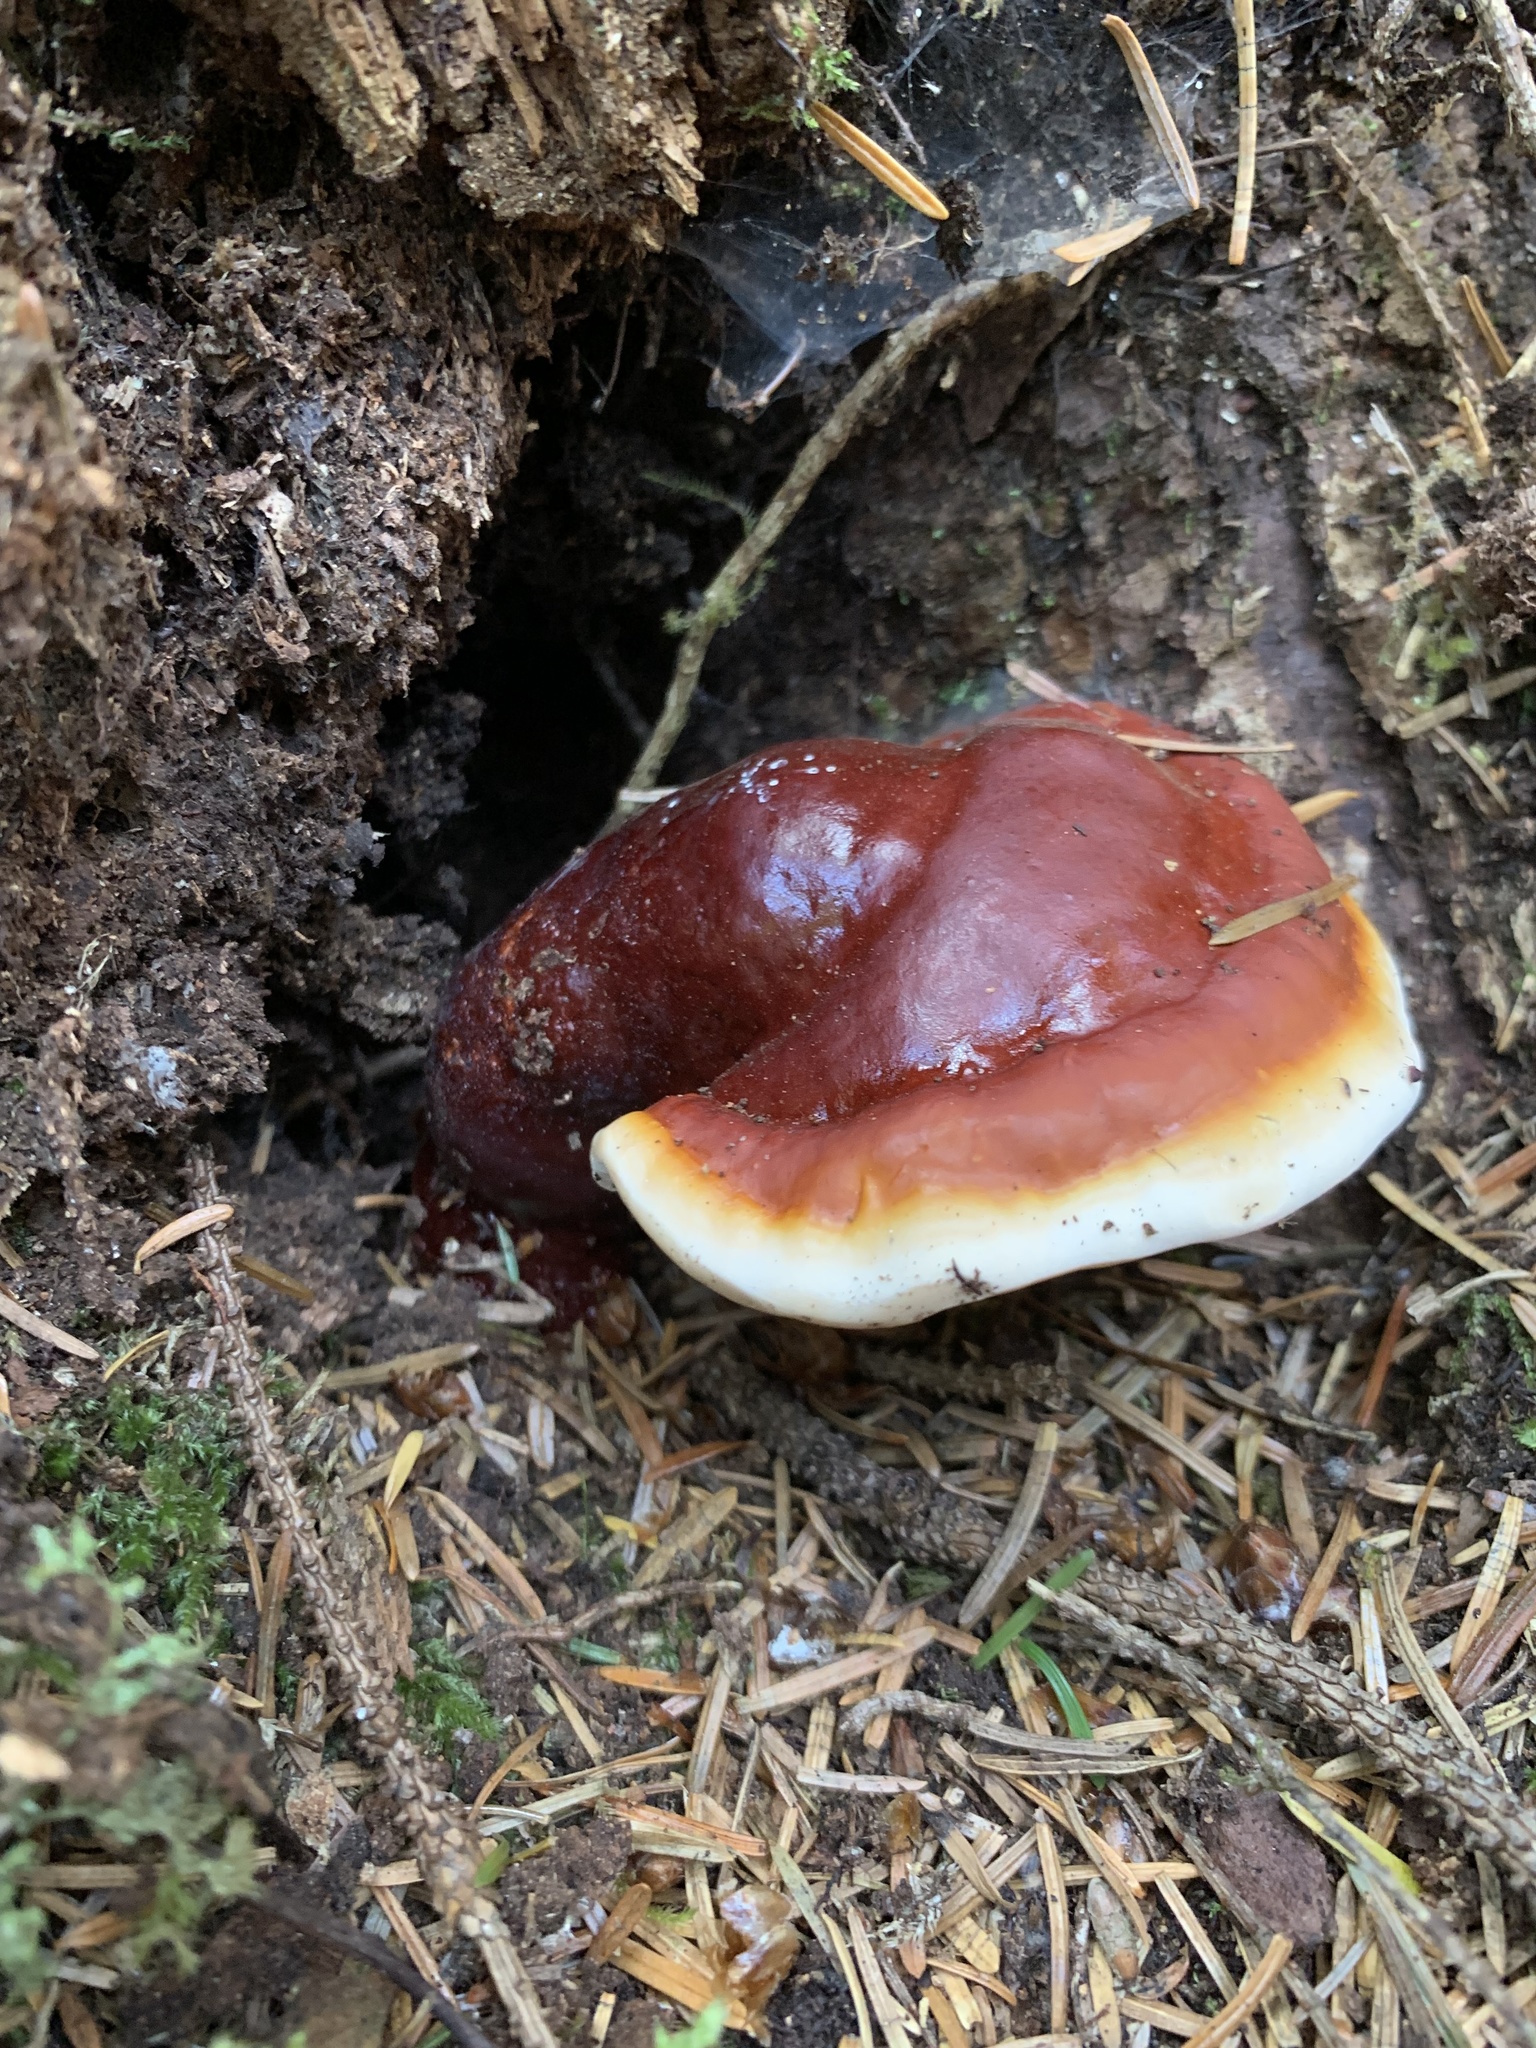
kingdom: Fungi
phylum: Basidiomycota
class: Agaricomycetes
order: Polyporales
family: Polyporaceae
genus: Ganoderma
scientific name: Ganoderma oregonense
